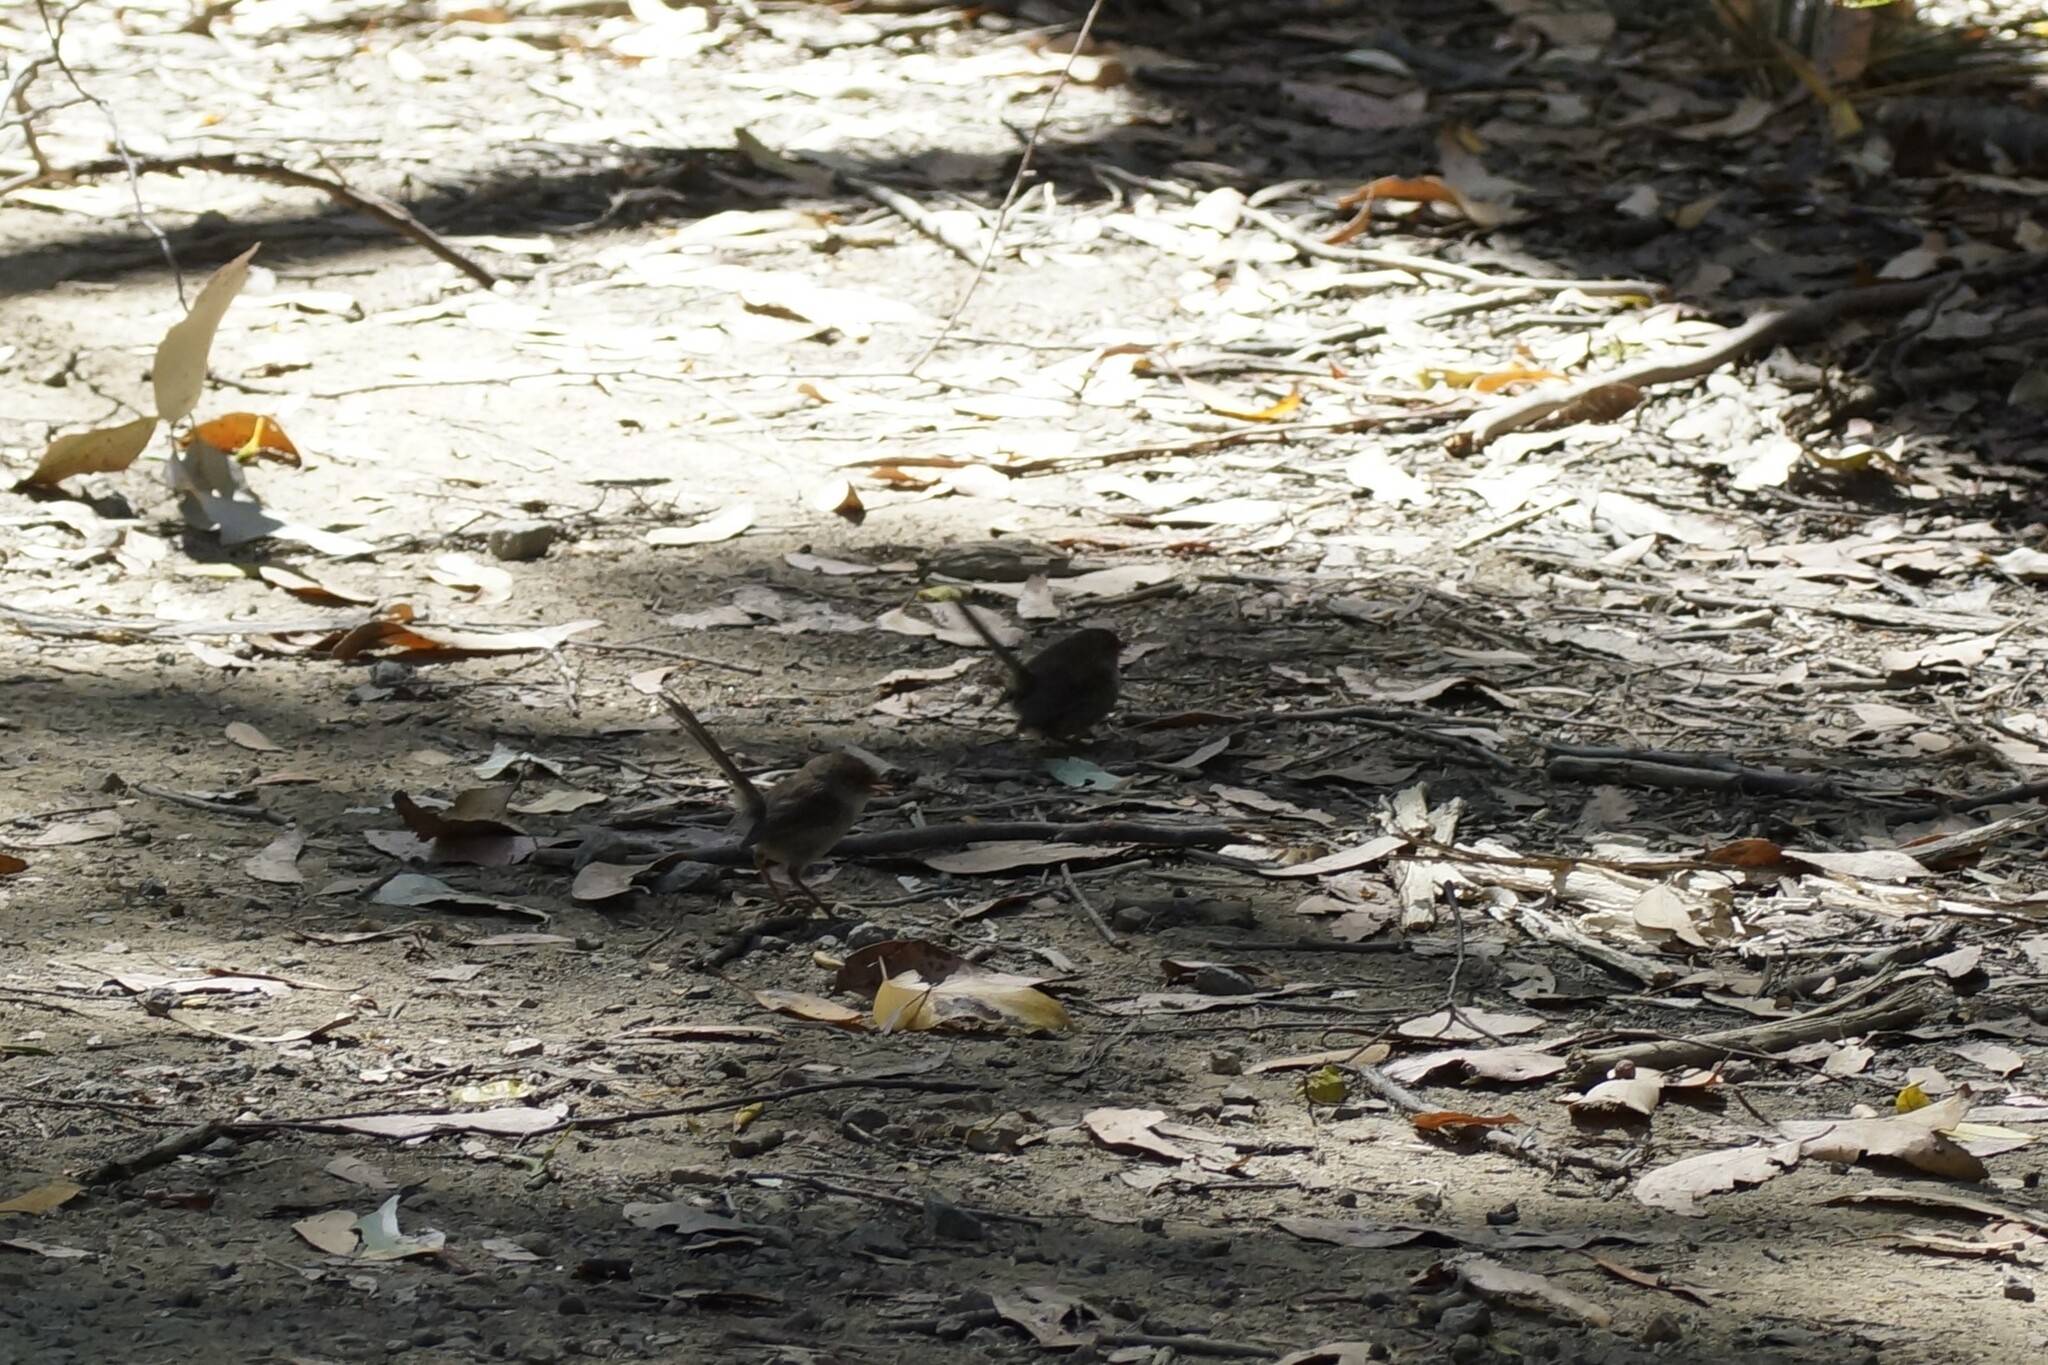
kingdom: Animalia
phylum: Chordata
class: Aves
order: Passeriformes
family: Maluridae
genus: Malurus
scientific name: Malurus cyaneus
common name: Superb fairywren
